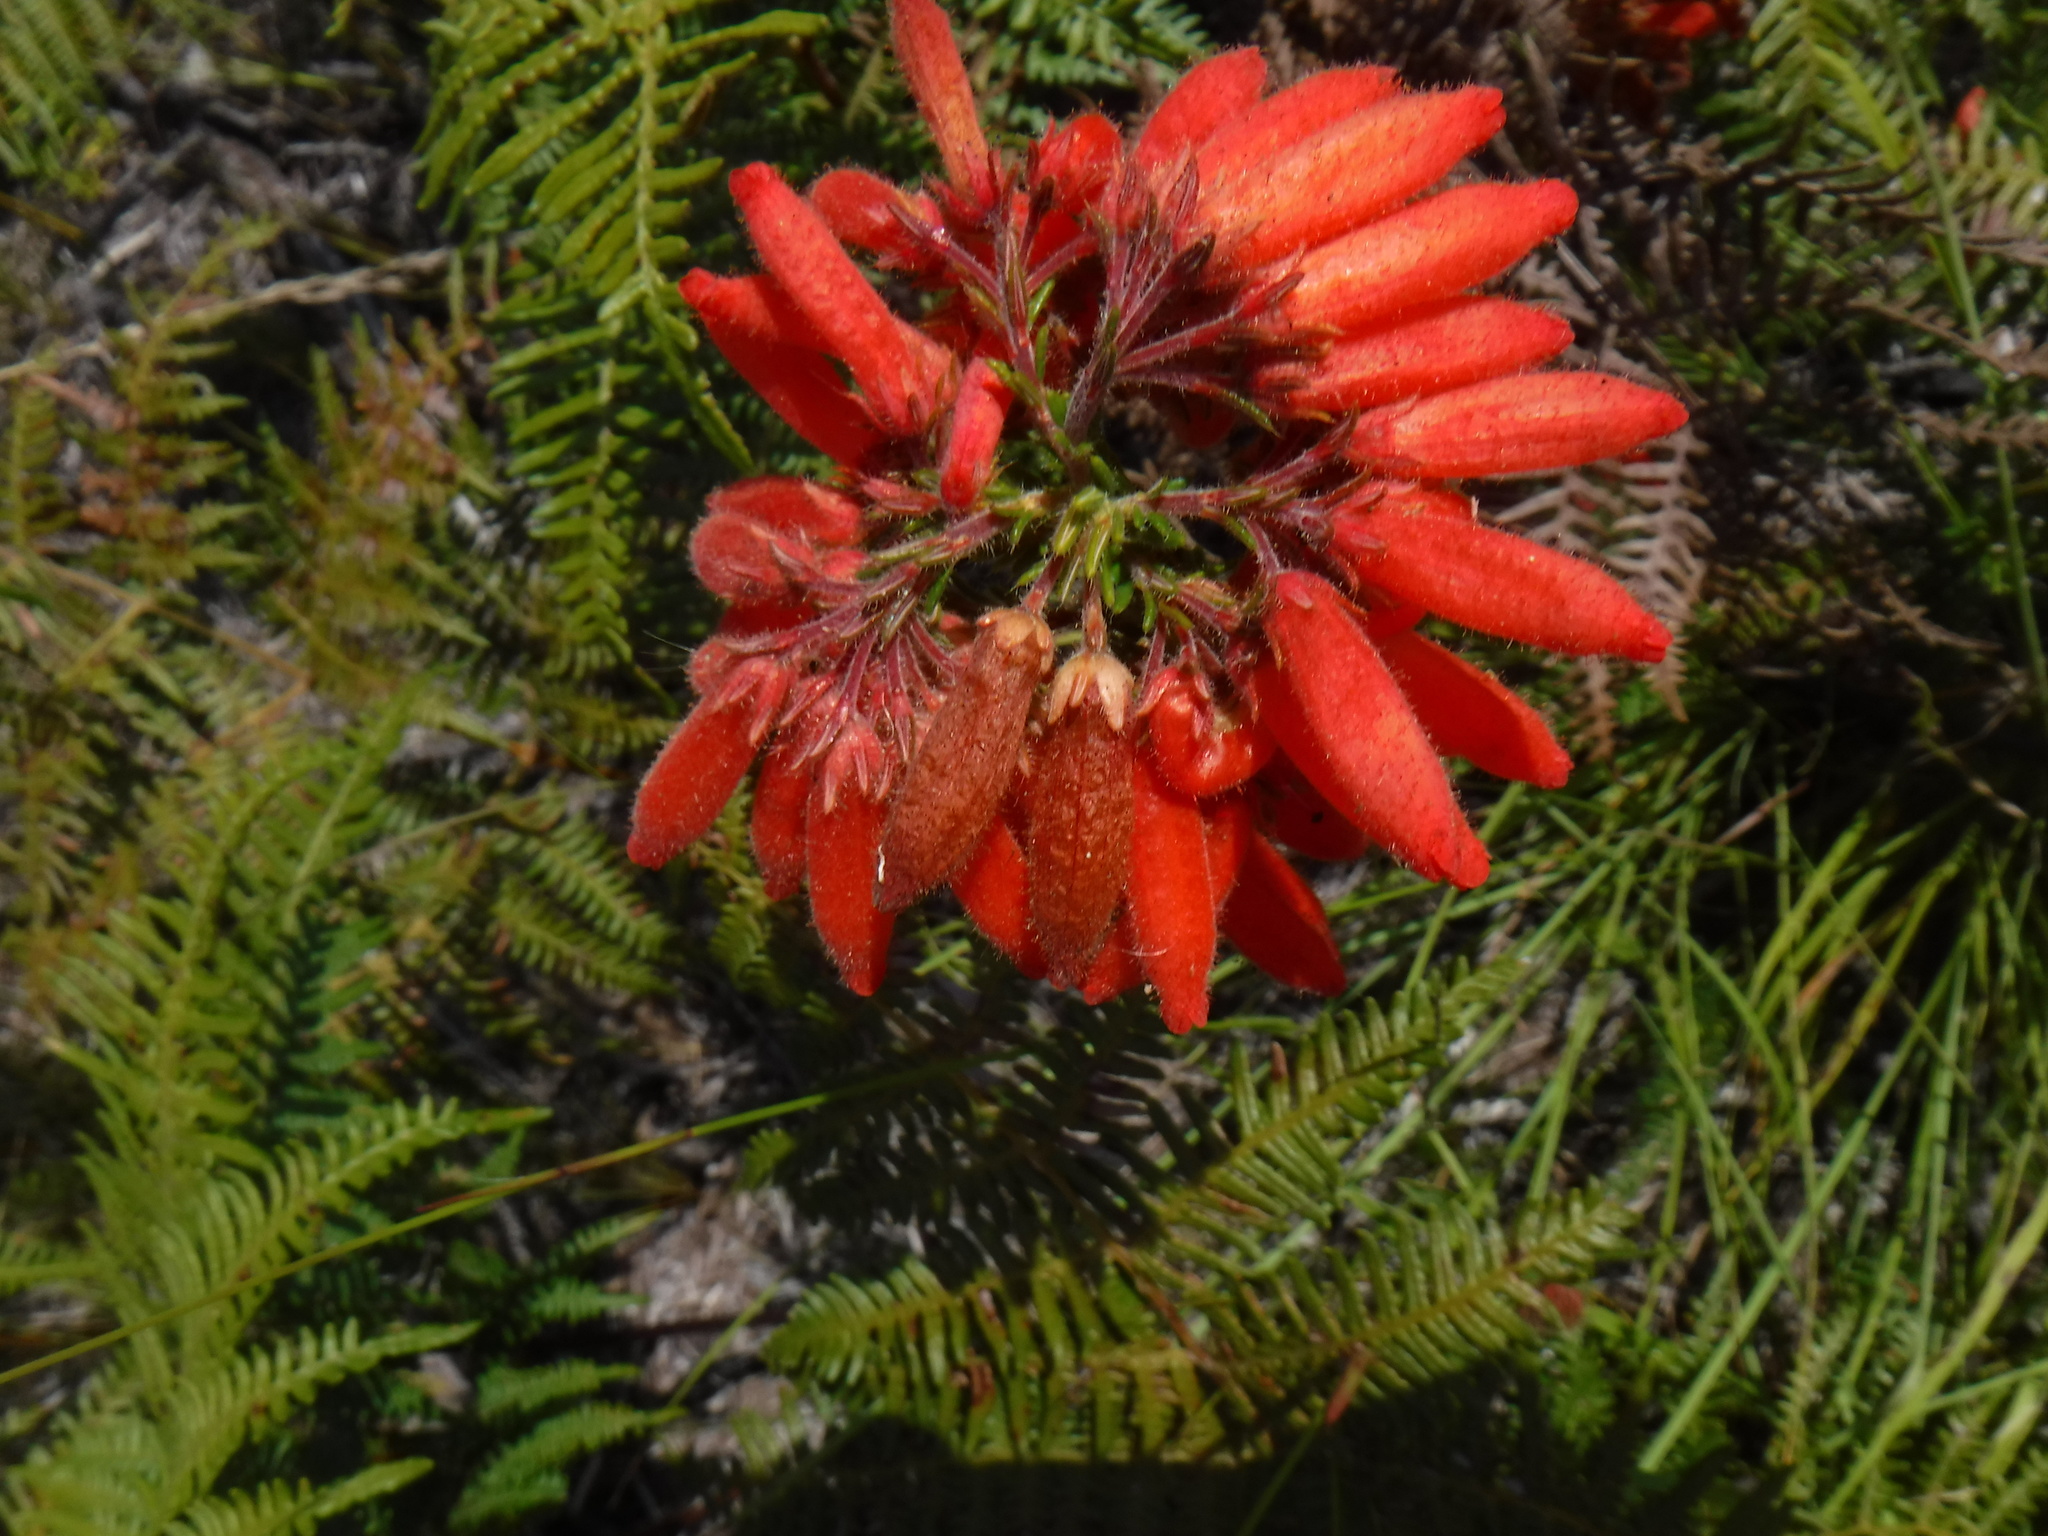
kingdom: Plantae
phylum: Tracheophyta
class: Magnoliopsida
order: Ericales
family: Ericaceae
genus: Erica
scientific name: Erica cerinthoides
